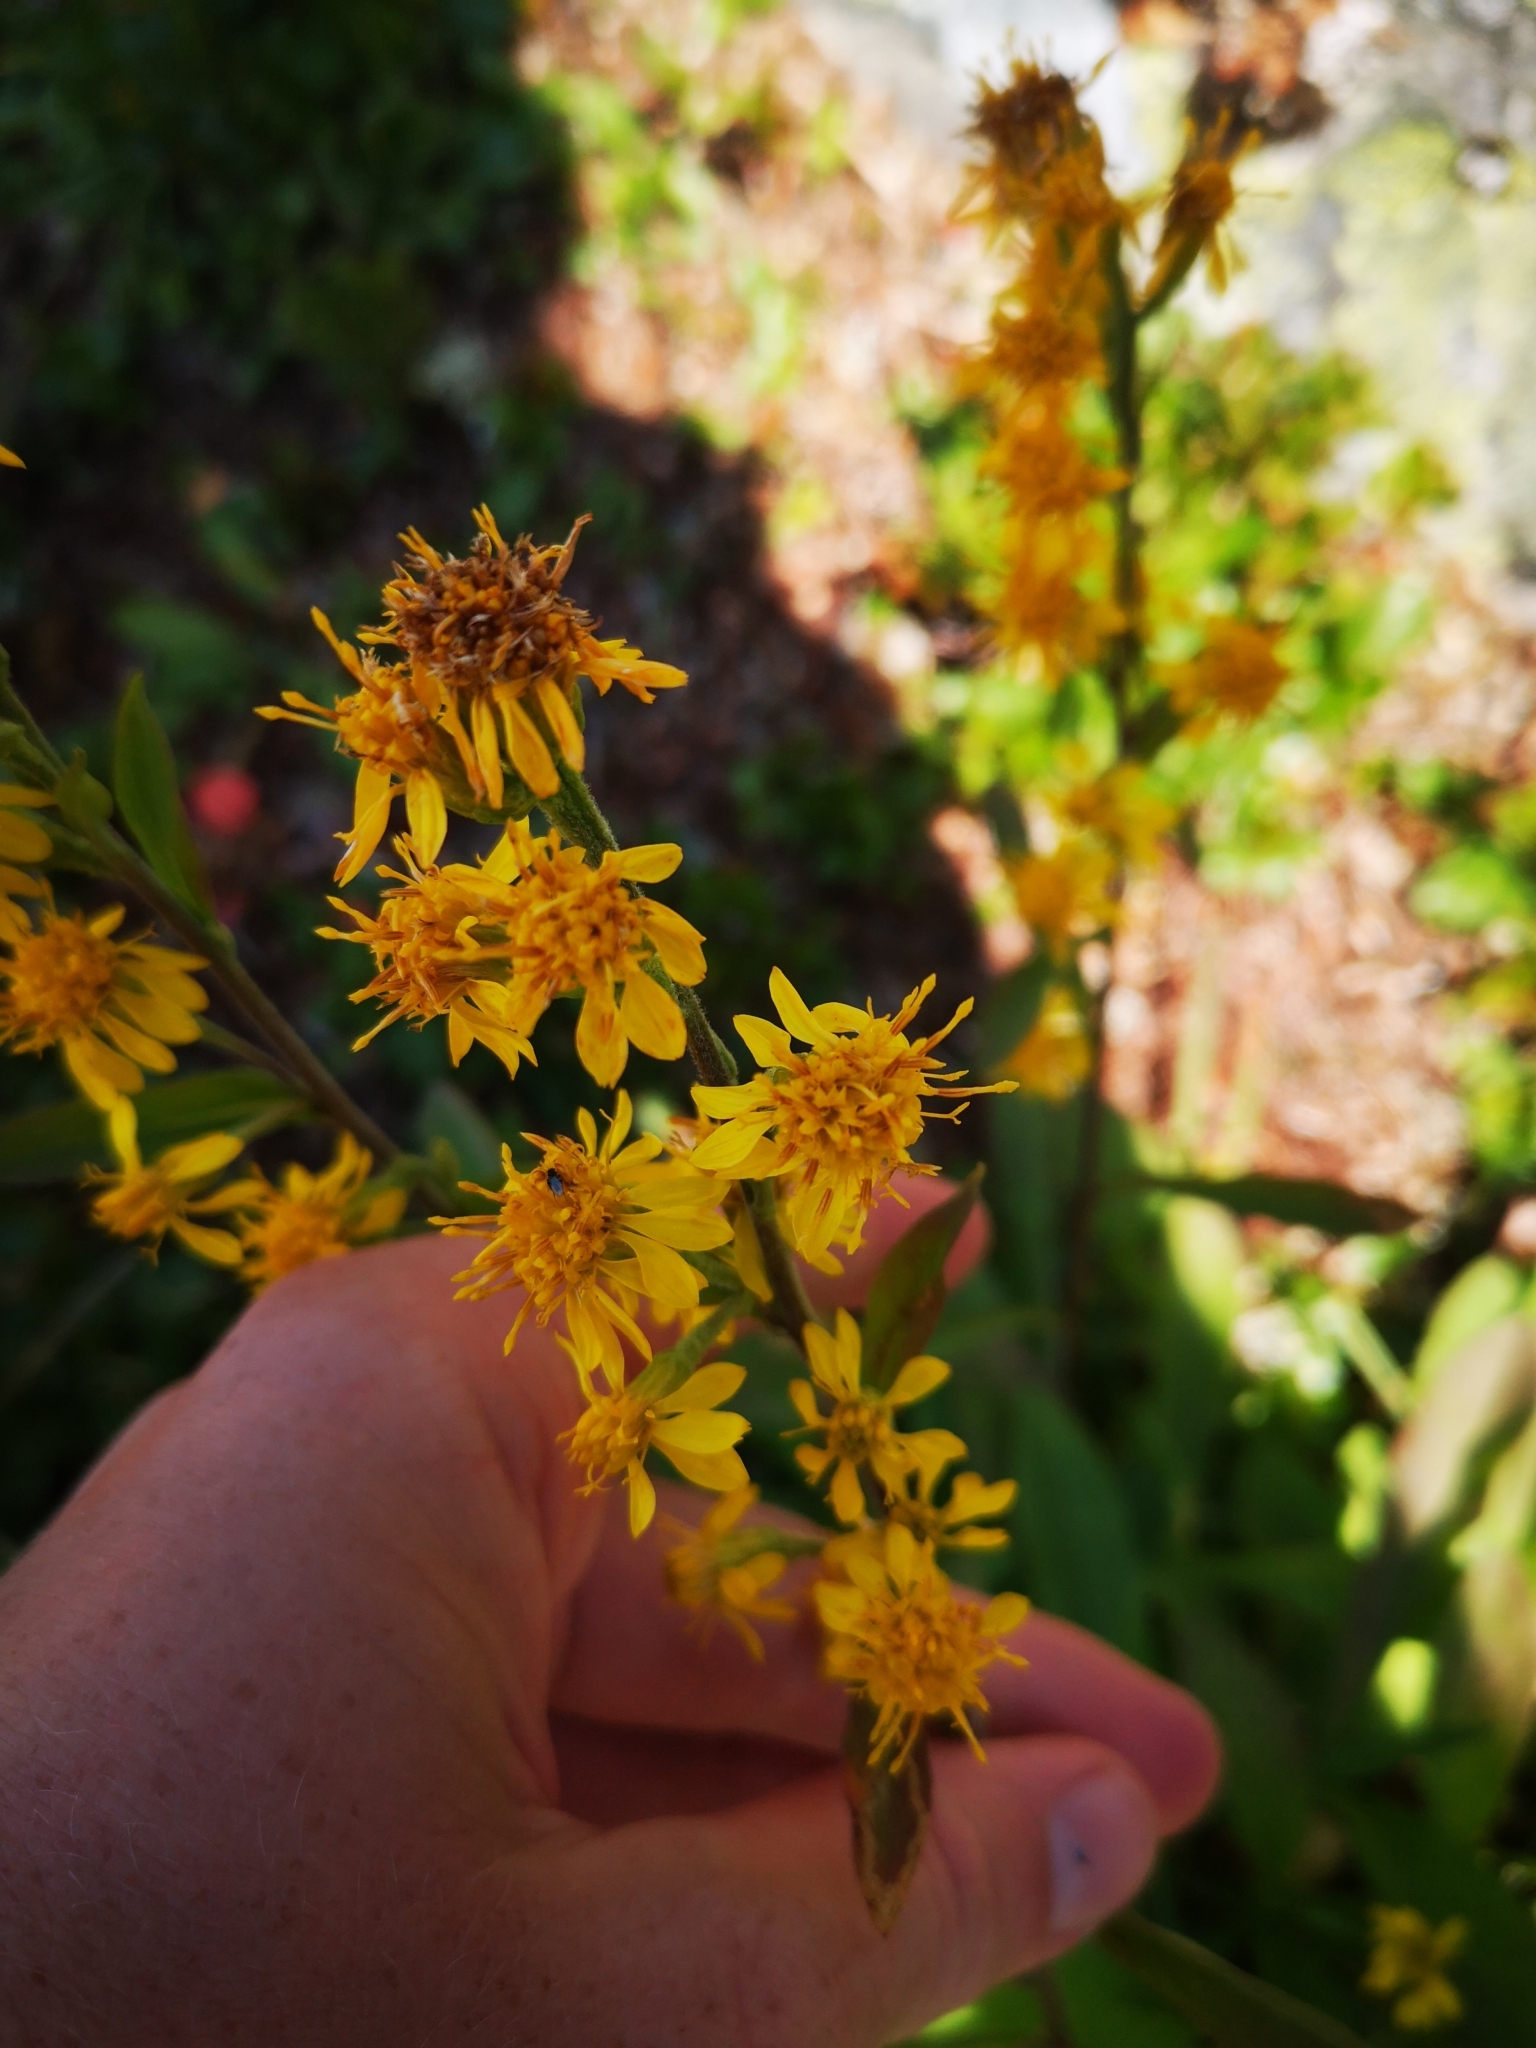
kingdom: Plantae
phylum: Tracheophyta
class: Magnoliopsida
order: Asterales
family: Asteraceae
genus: Solidago
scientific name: Solidago virgaurea
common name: Goldenrod
